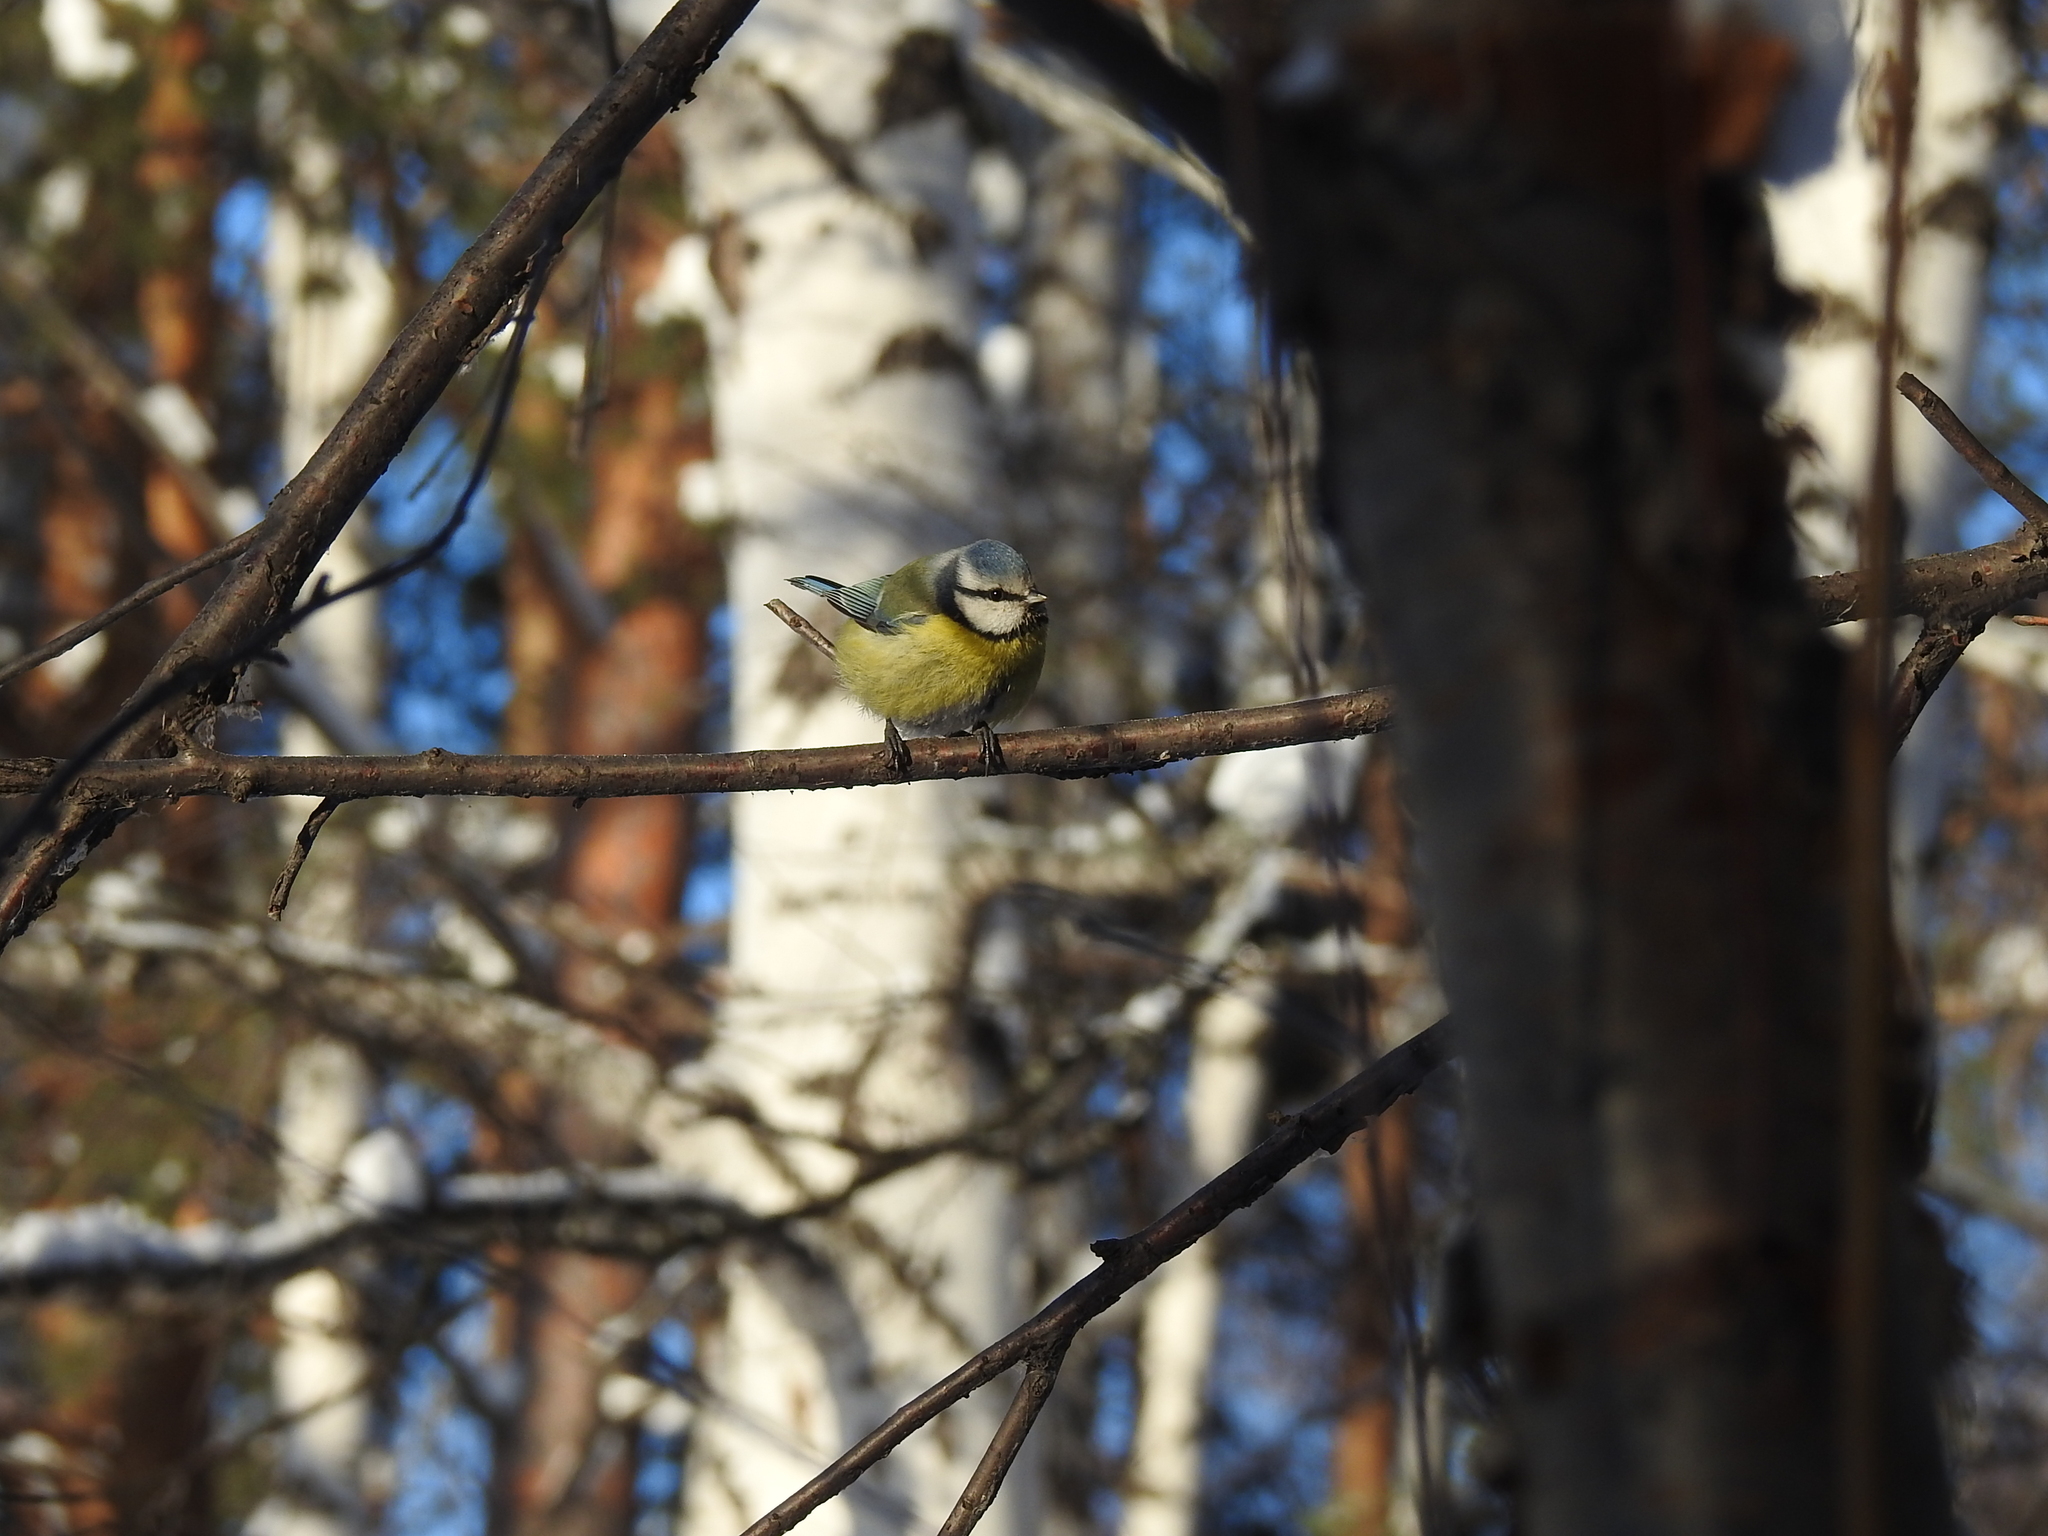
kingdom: Animalia
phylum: Chordata
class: Aves
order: Passeriformes
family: Paridae
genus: Cyanistes
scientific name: Cyanistes caeruleus
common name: Eurasian blue tit
